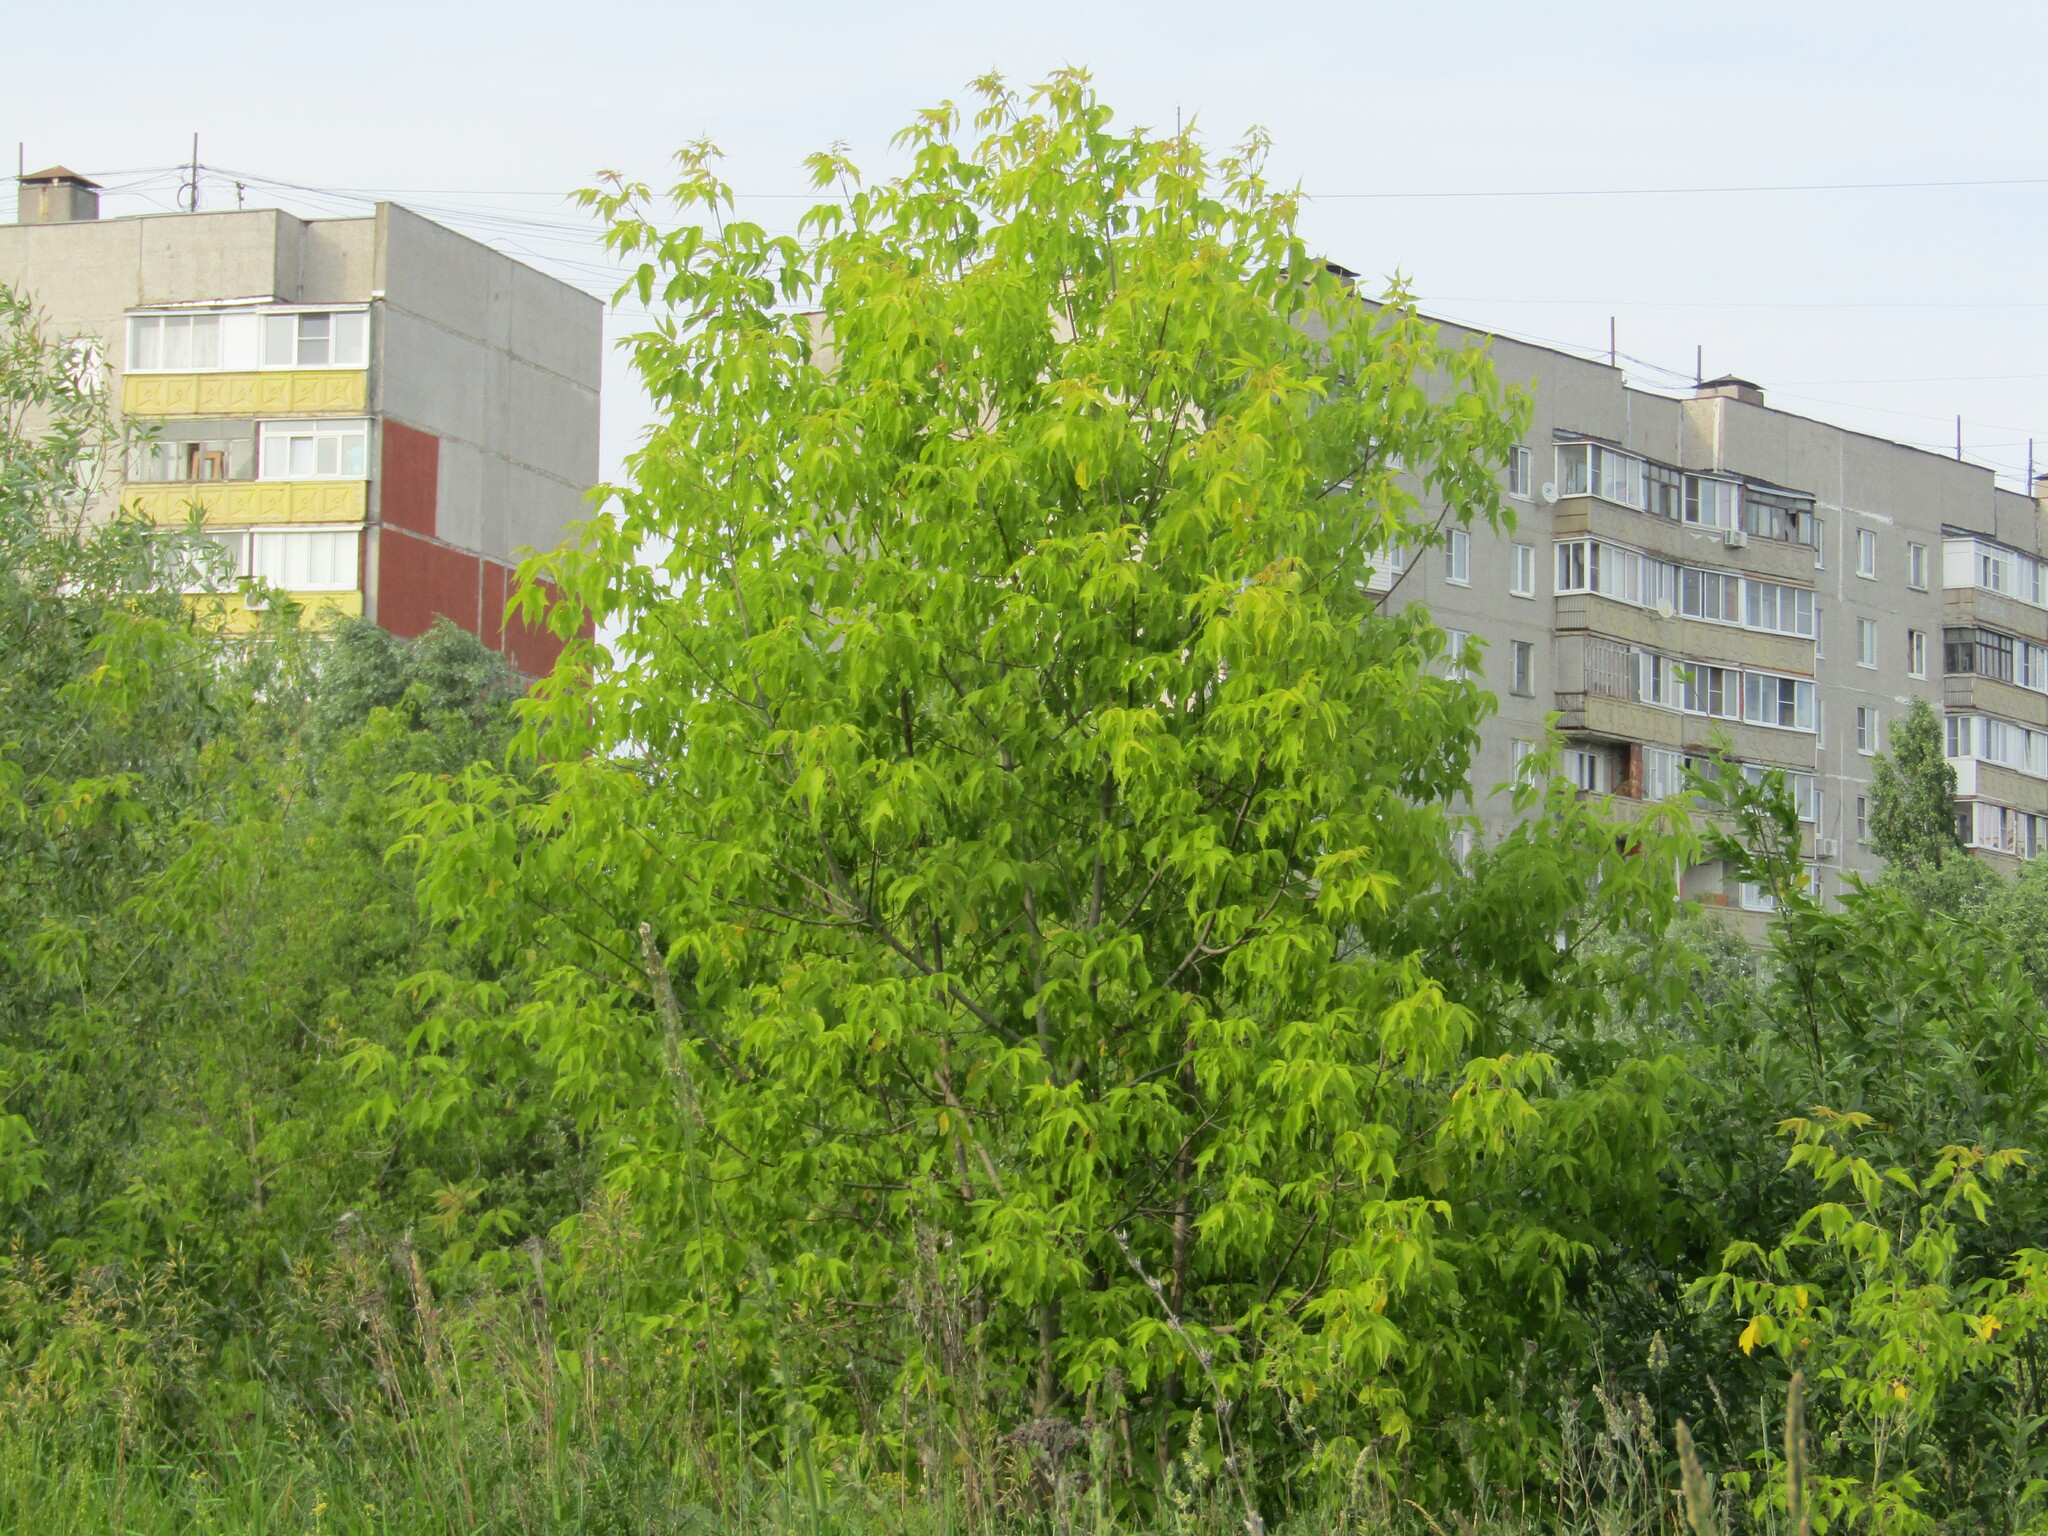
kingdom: Plantae
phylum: Tracheophyta
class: Magnoliopsida
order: Sapindales
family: Sapindaceae
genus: Acer
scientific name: Acer negundo
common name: Ashleaf maple
